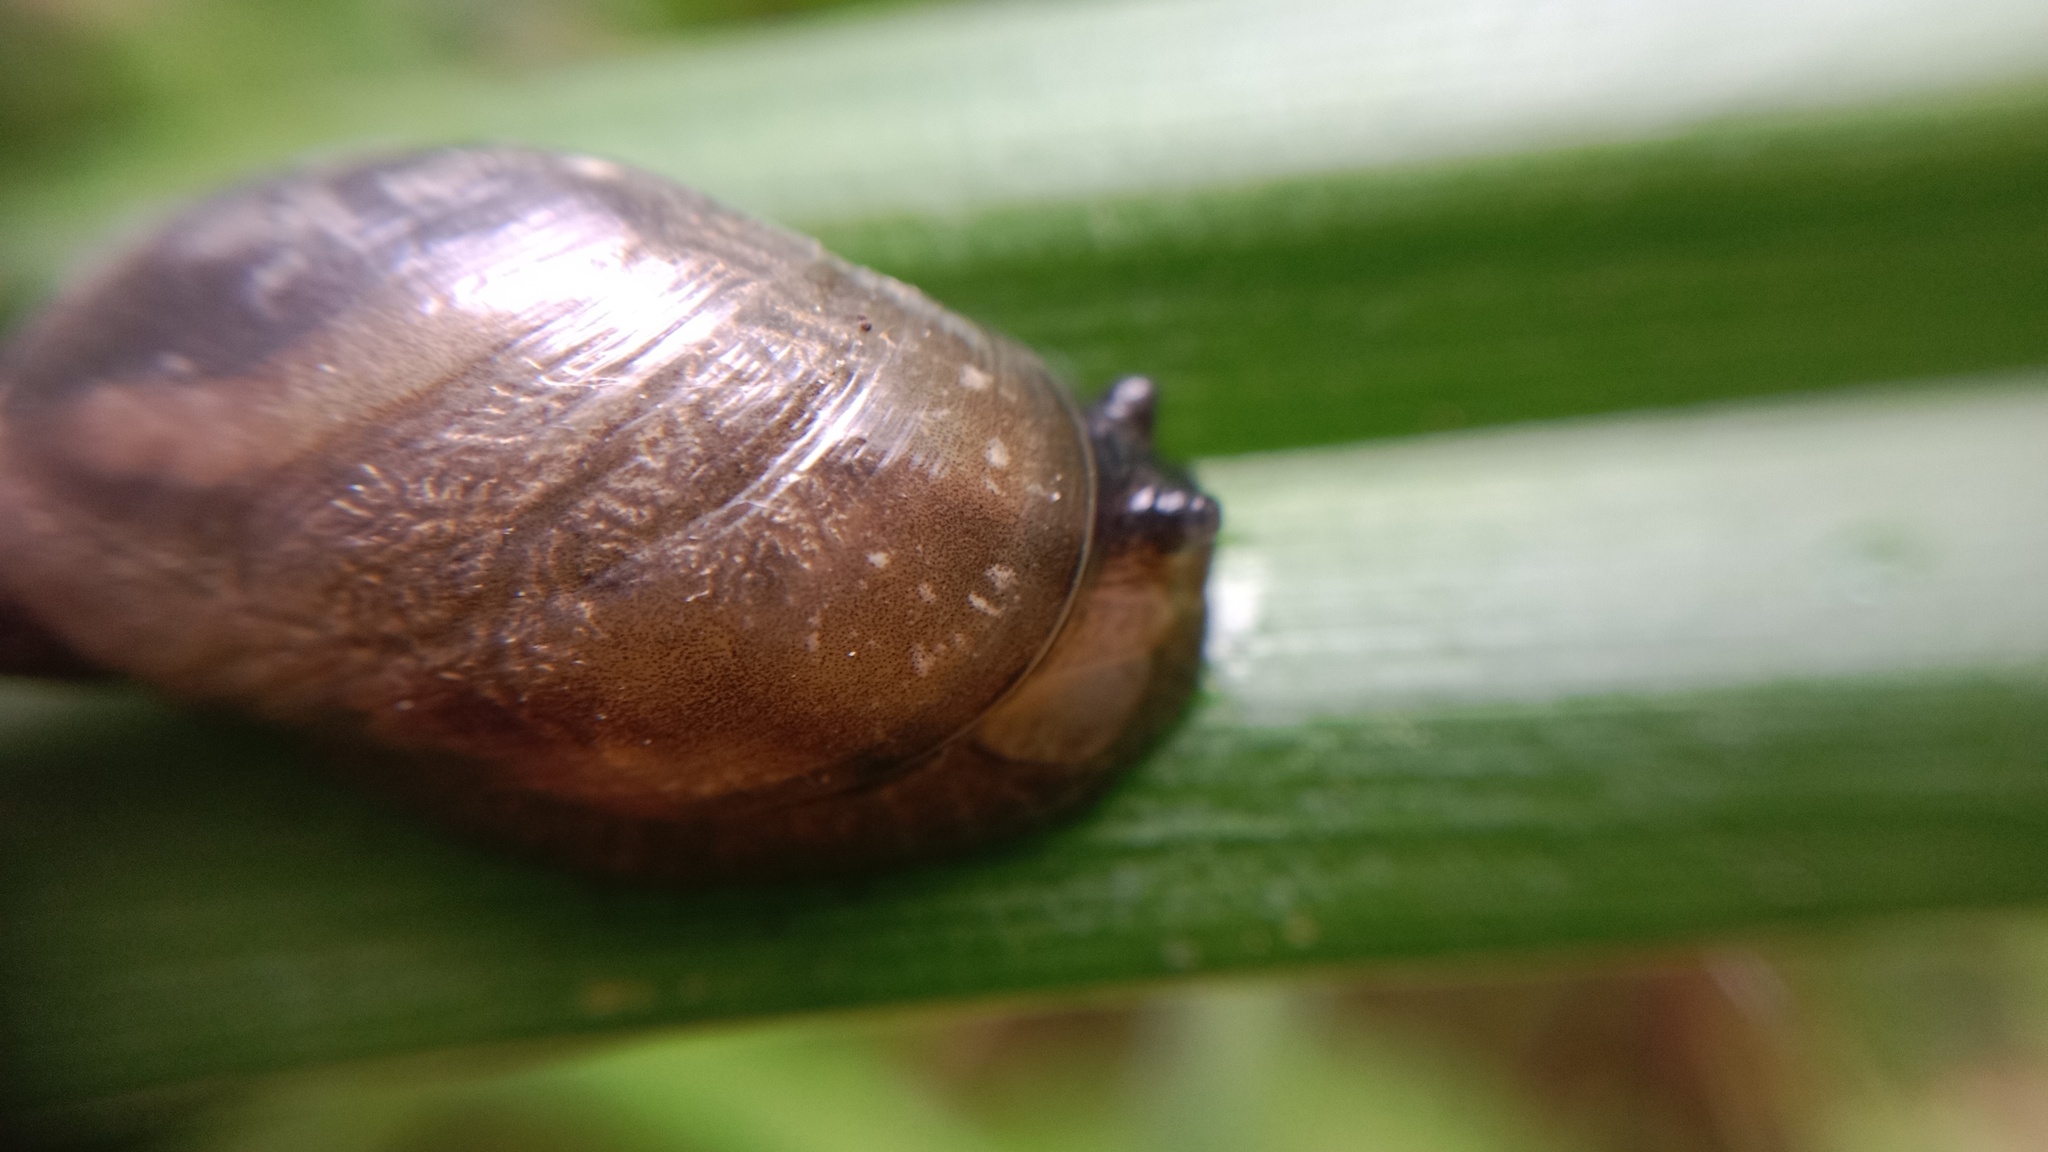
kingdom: Animalia
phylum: Mollusca
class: Gastropoda
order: Stylommatophora
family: Succineidae
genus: Succinea
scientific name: Succinea putris
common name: European ambersnail
